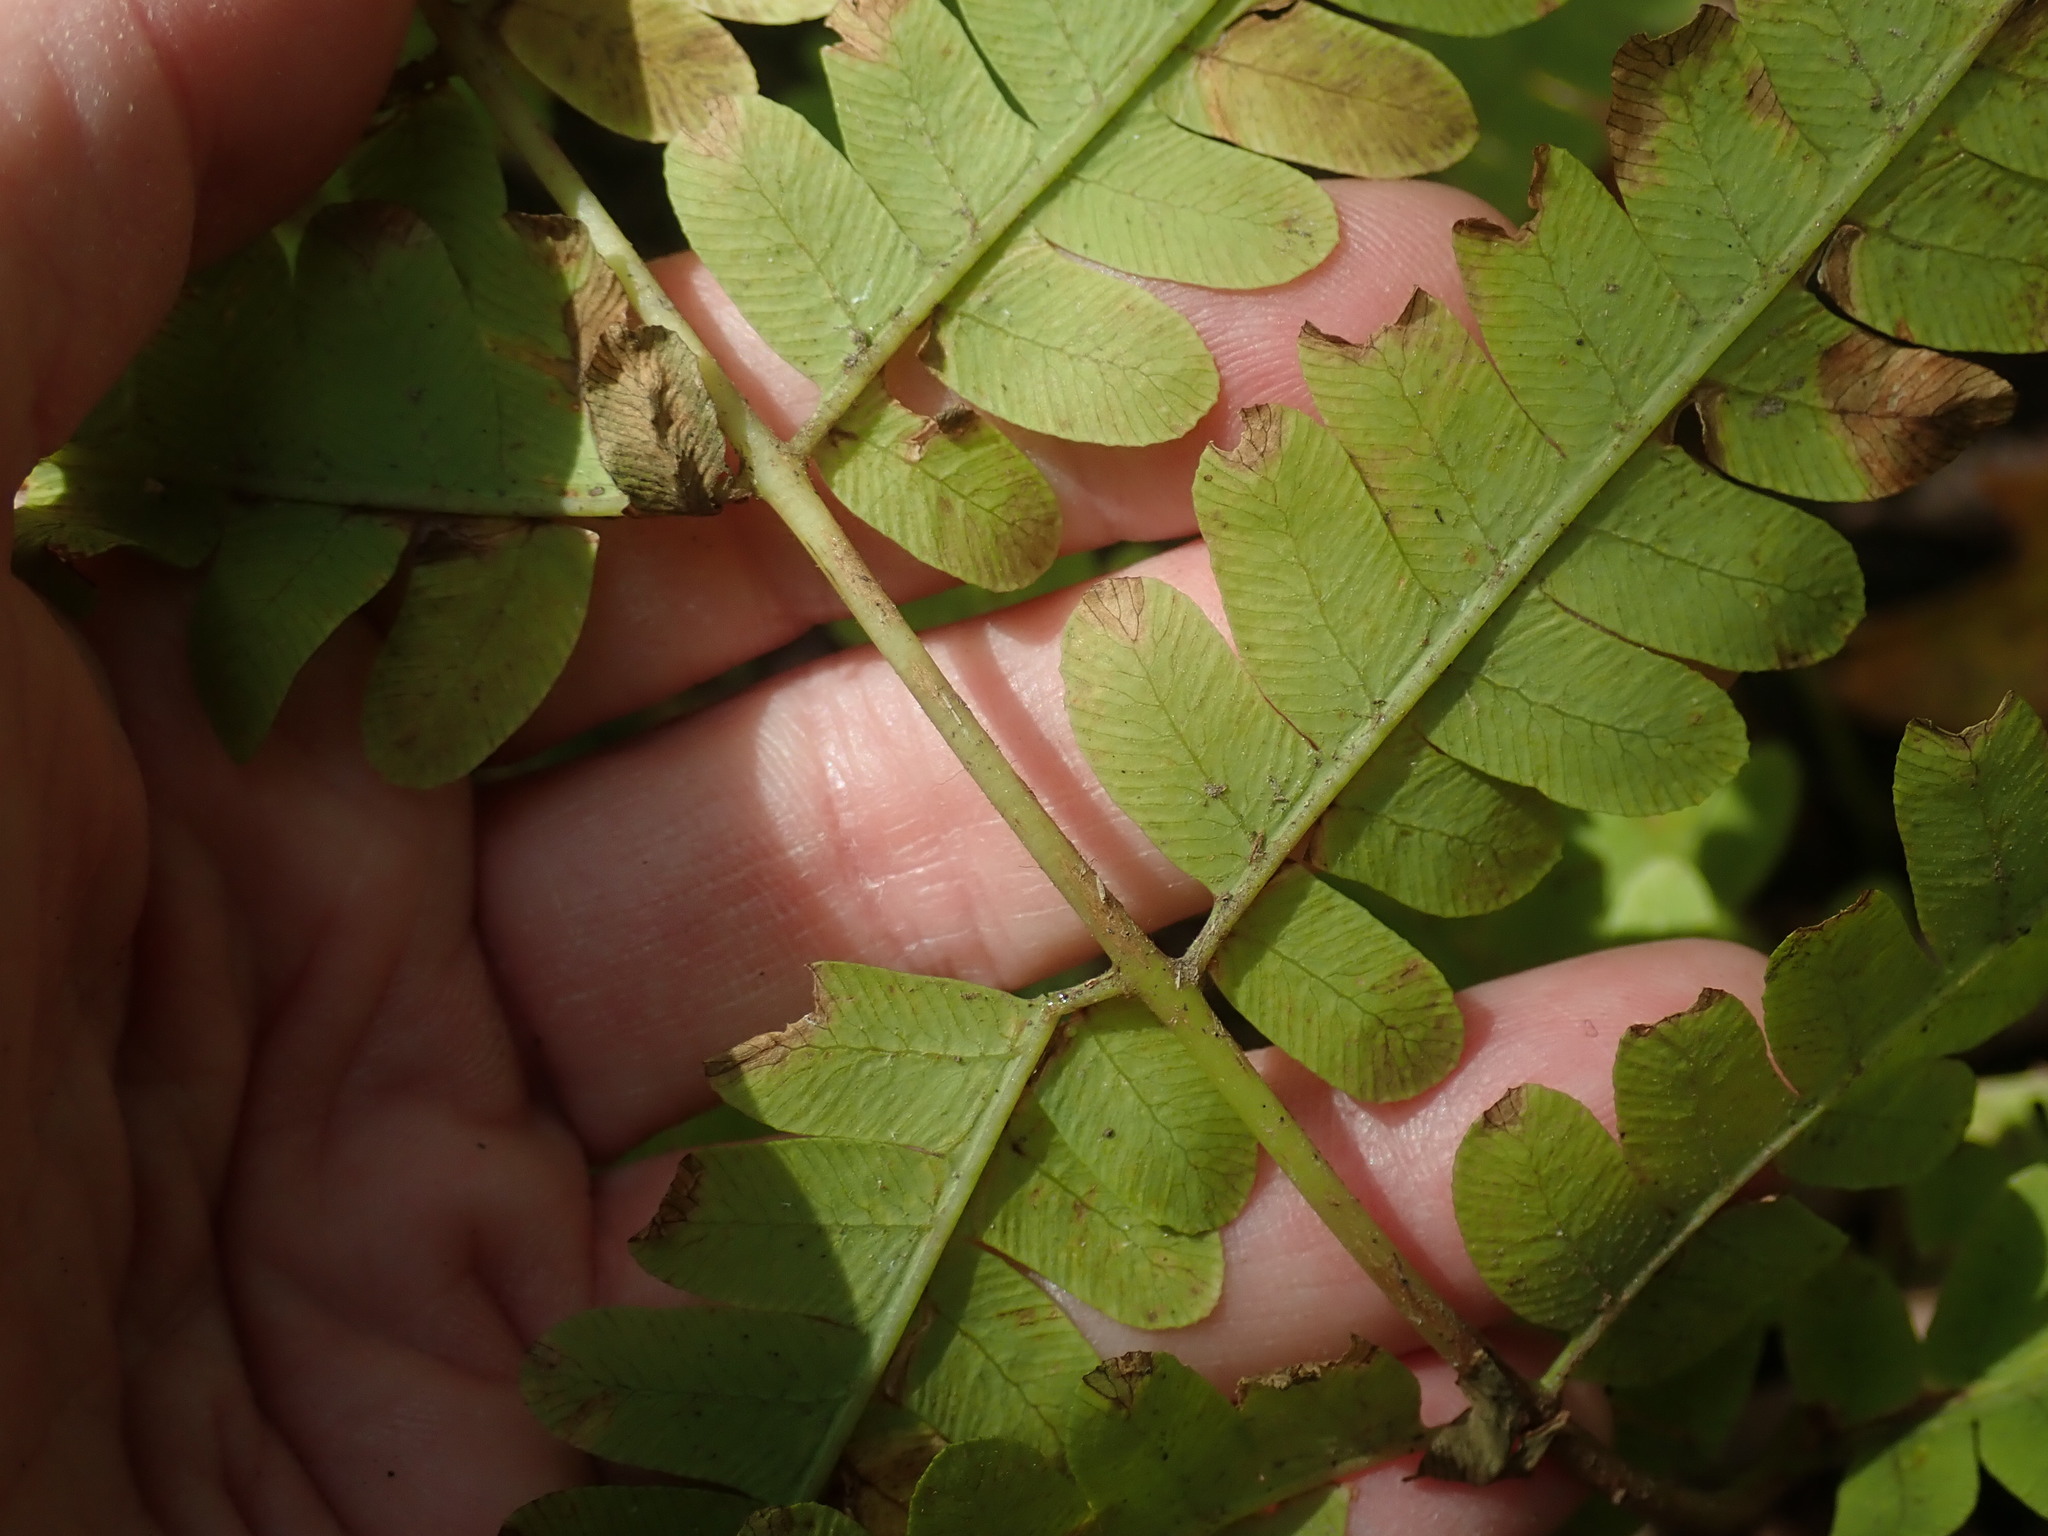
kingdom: Plantae
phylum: Tracheophyta
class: Polypodiopsida
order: Osmundales
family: Osmundaceae
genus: Claytosmunda
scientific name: Claytosmunda claytoniana
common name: Clayton's fern
